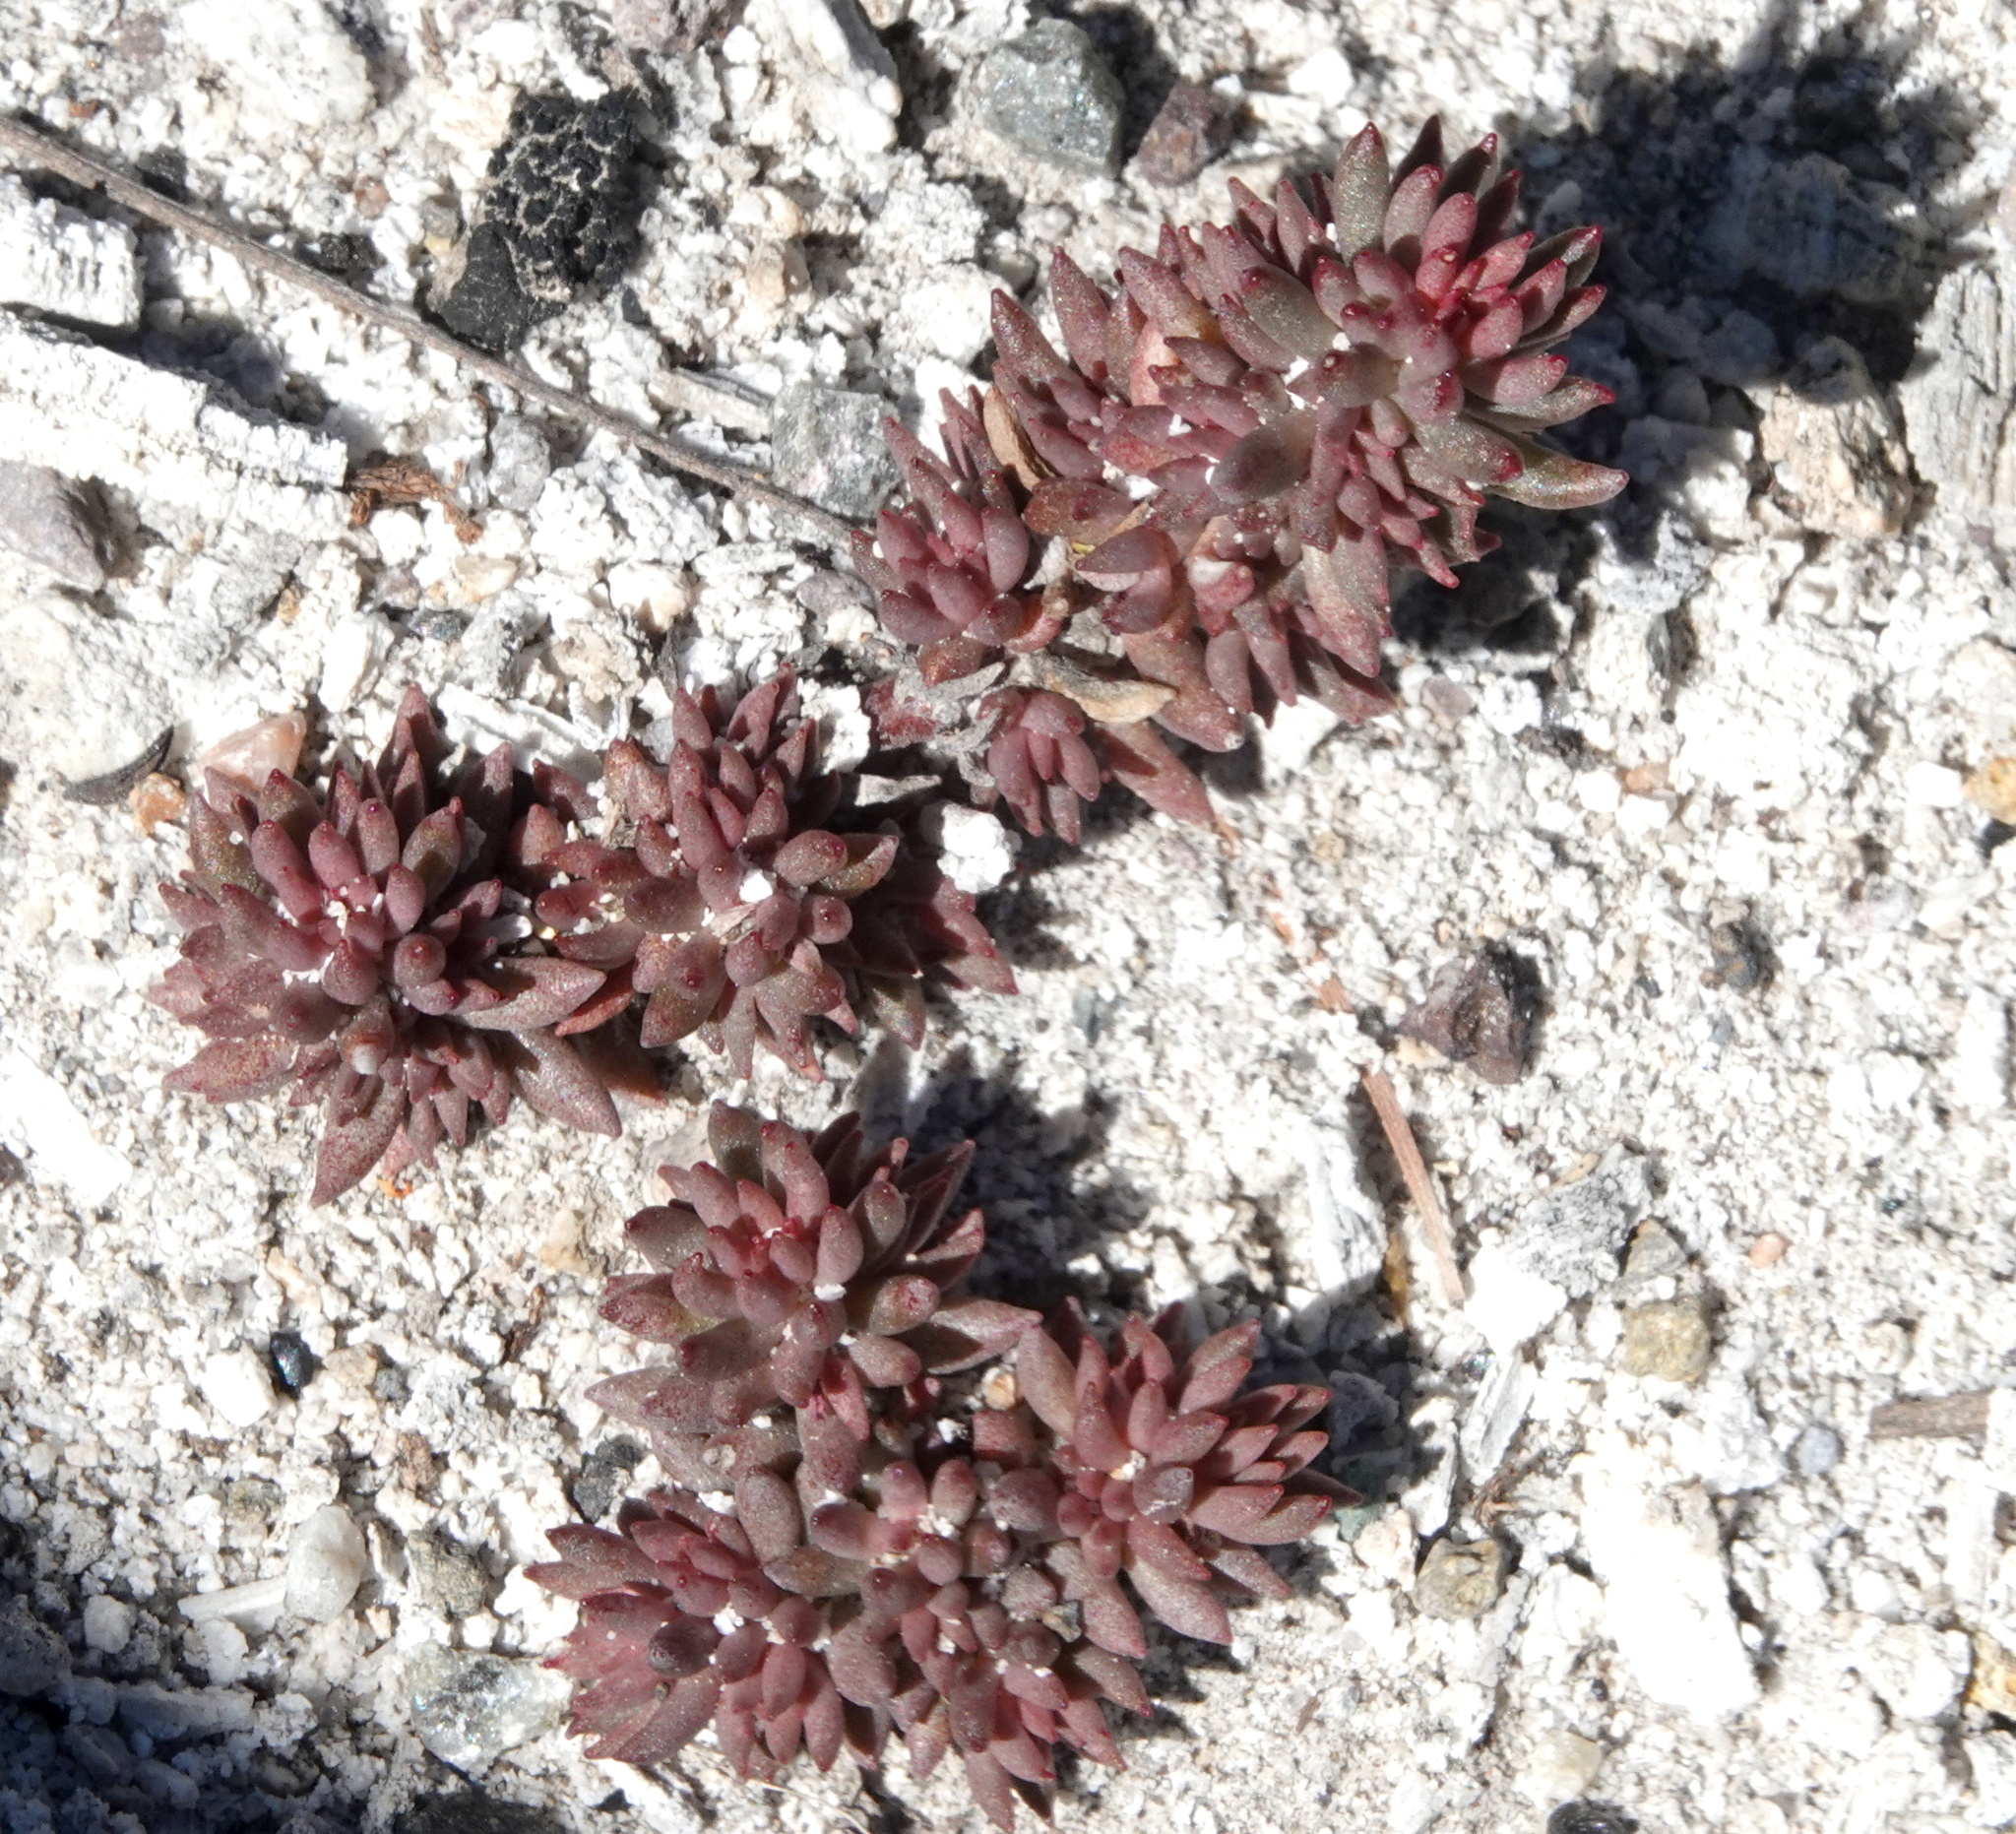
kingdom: Plantae
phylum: Tracheophyta
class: Magnoliopsida
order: Saxifragales
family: Crassulaceae
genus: Sedum
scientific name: Sedum lanceolatum
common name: Common stonecrop
